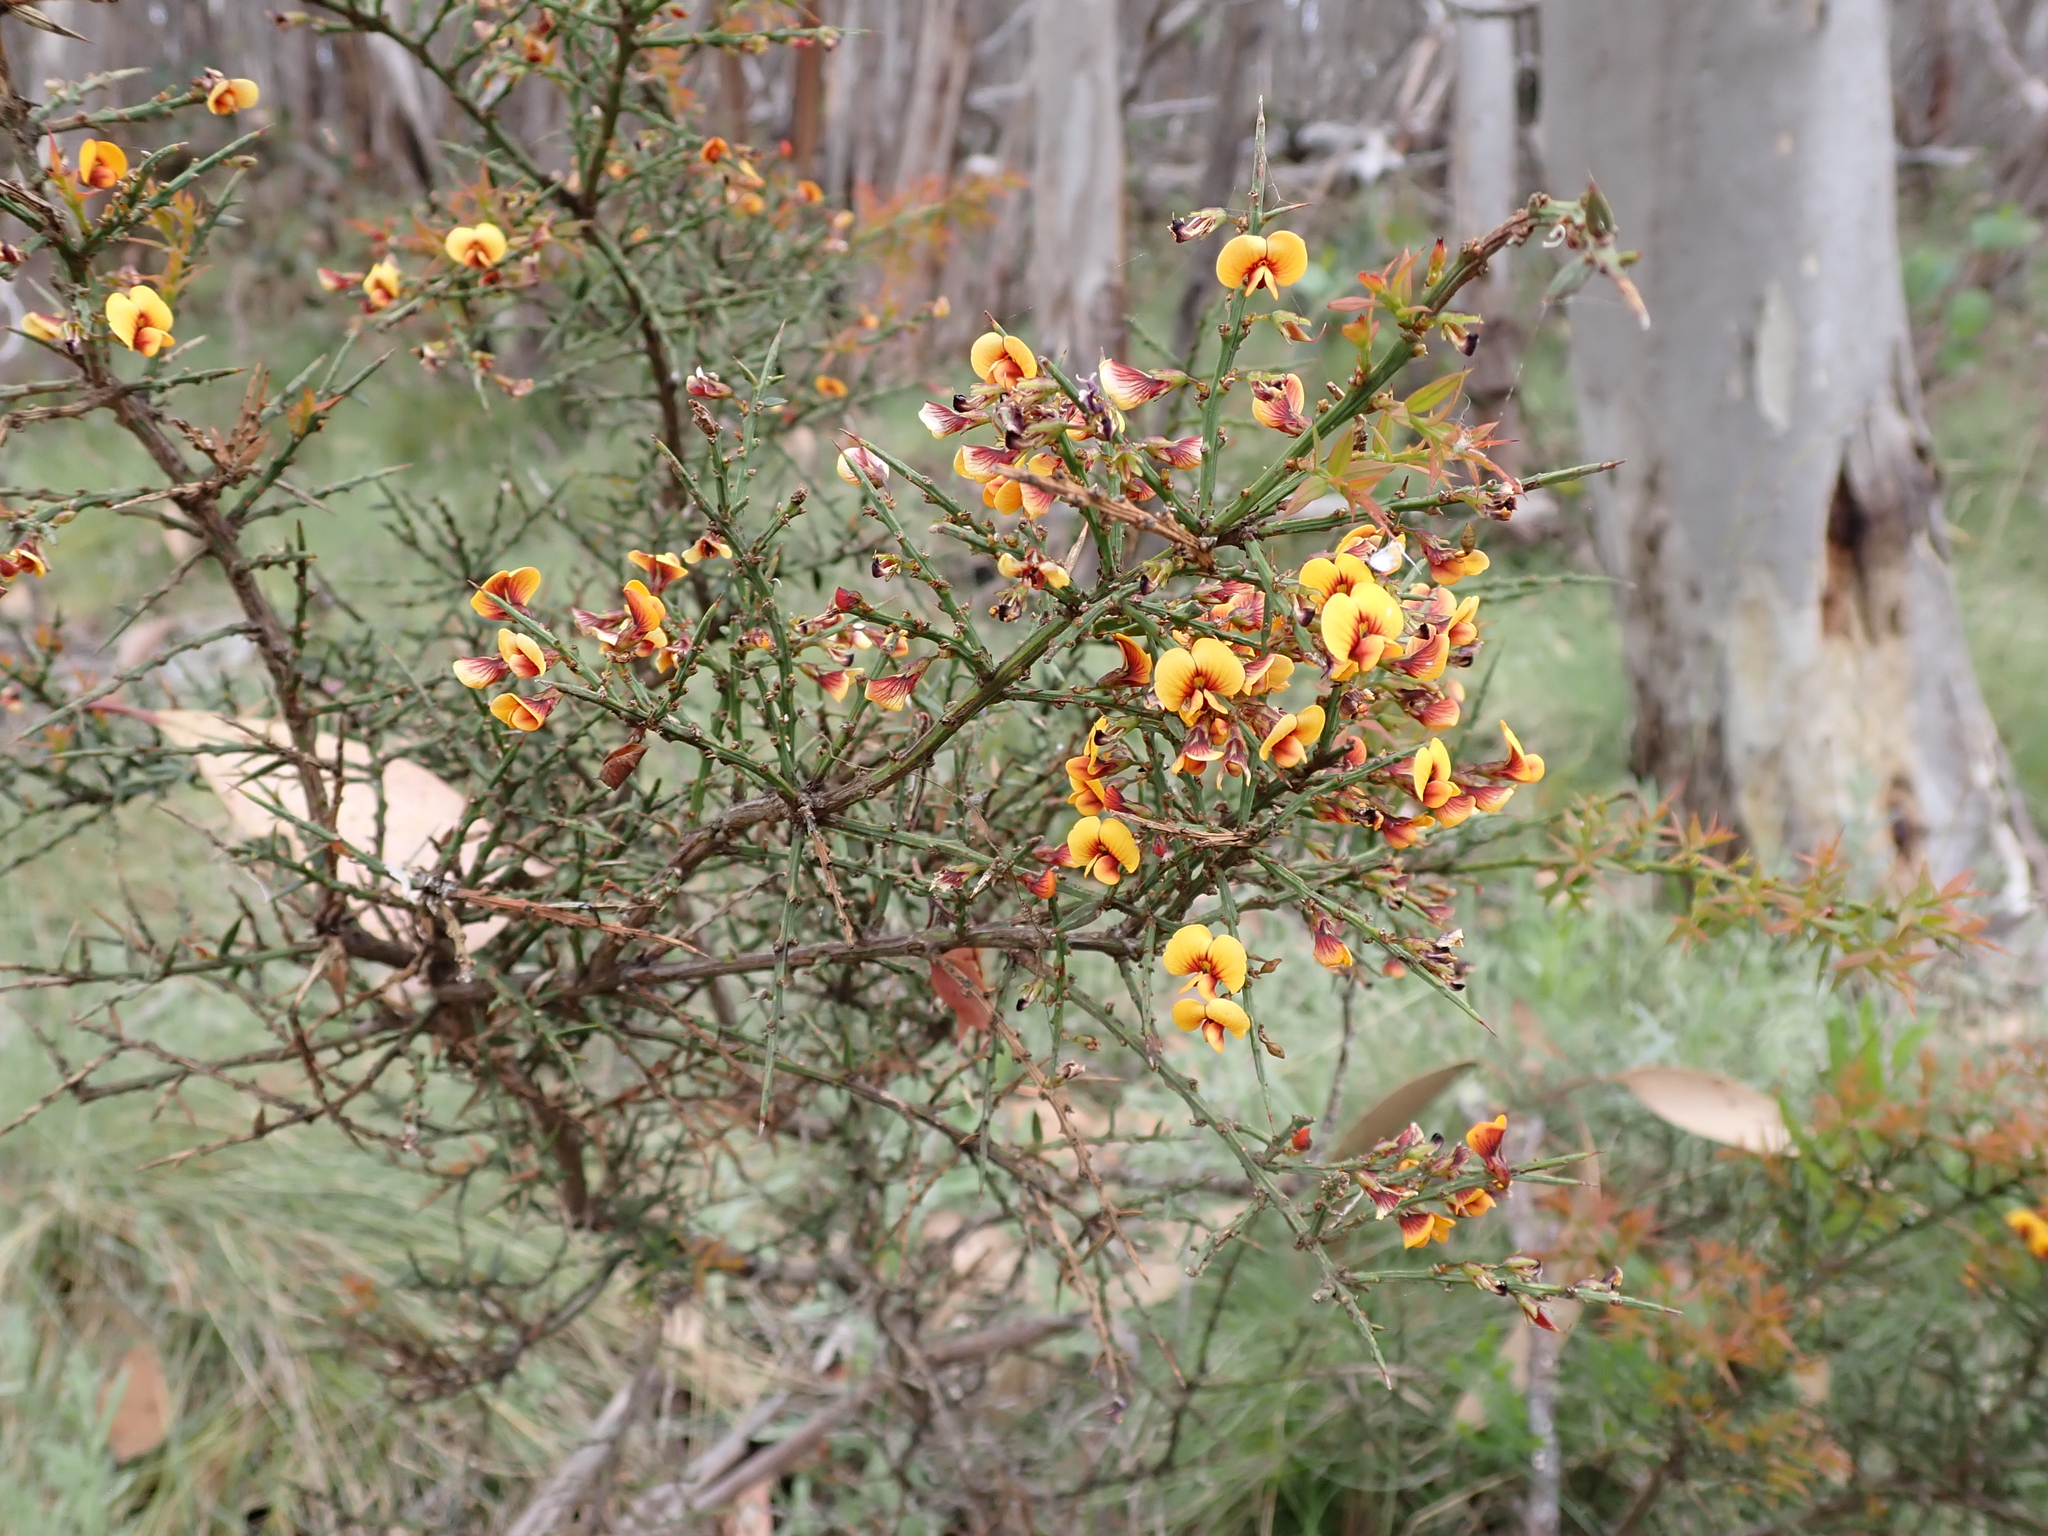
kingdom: Plantae
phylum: Tracheophyta
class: Magnoliopsida
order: Fabales
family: Fabaceae
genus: Daviesia
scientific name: Daviesia ulicifolia
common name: Gorse bitter-pea
